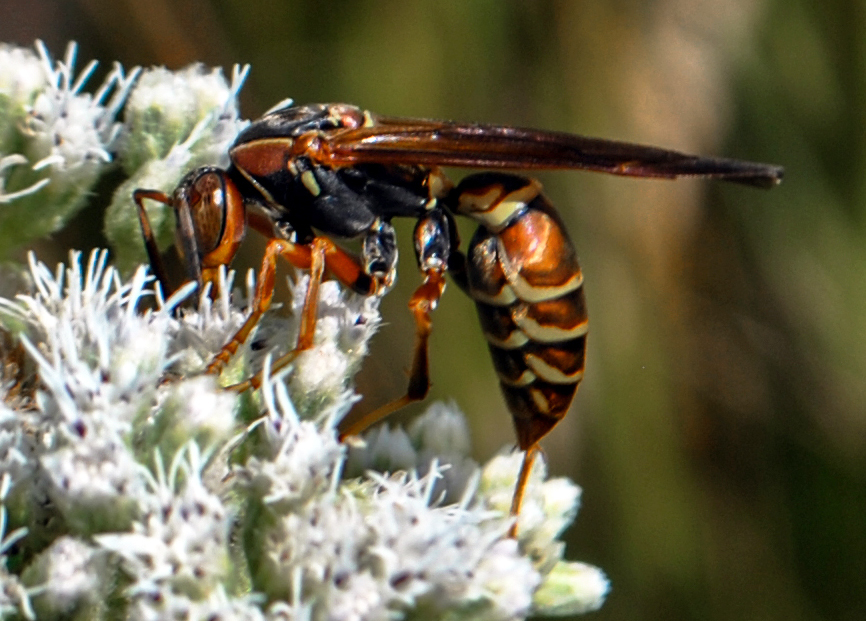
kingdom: Animalia
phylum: Arthropoda
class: Insecta
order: Hymenoptera
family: Eumenidae
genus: Polistes
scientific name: Polistes fuscatus
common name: Dark paper wasp
